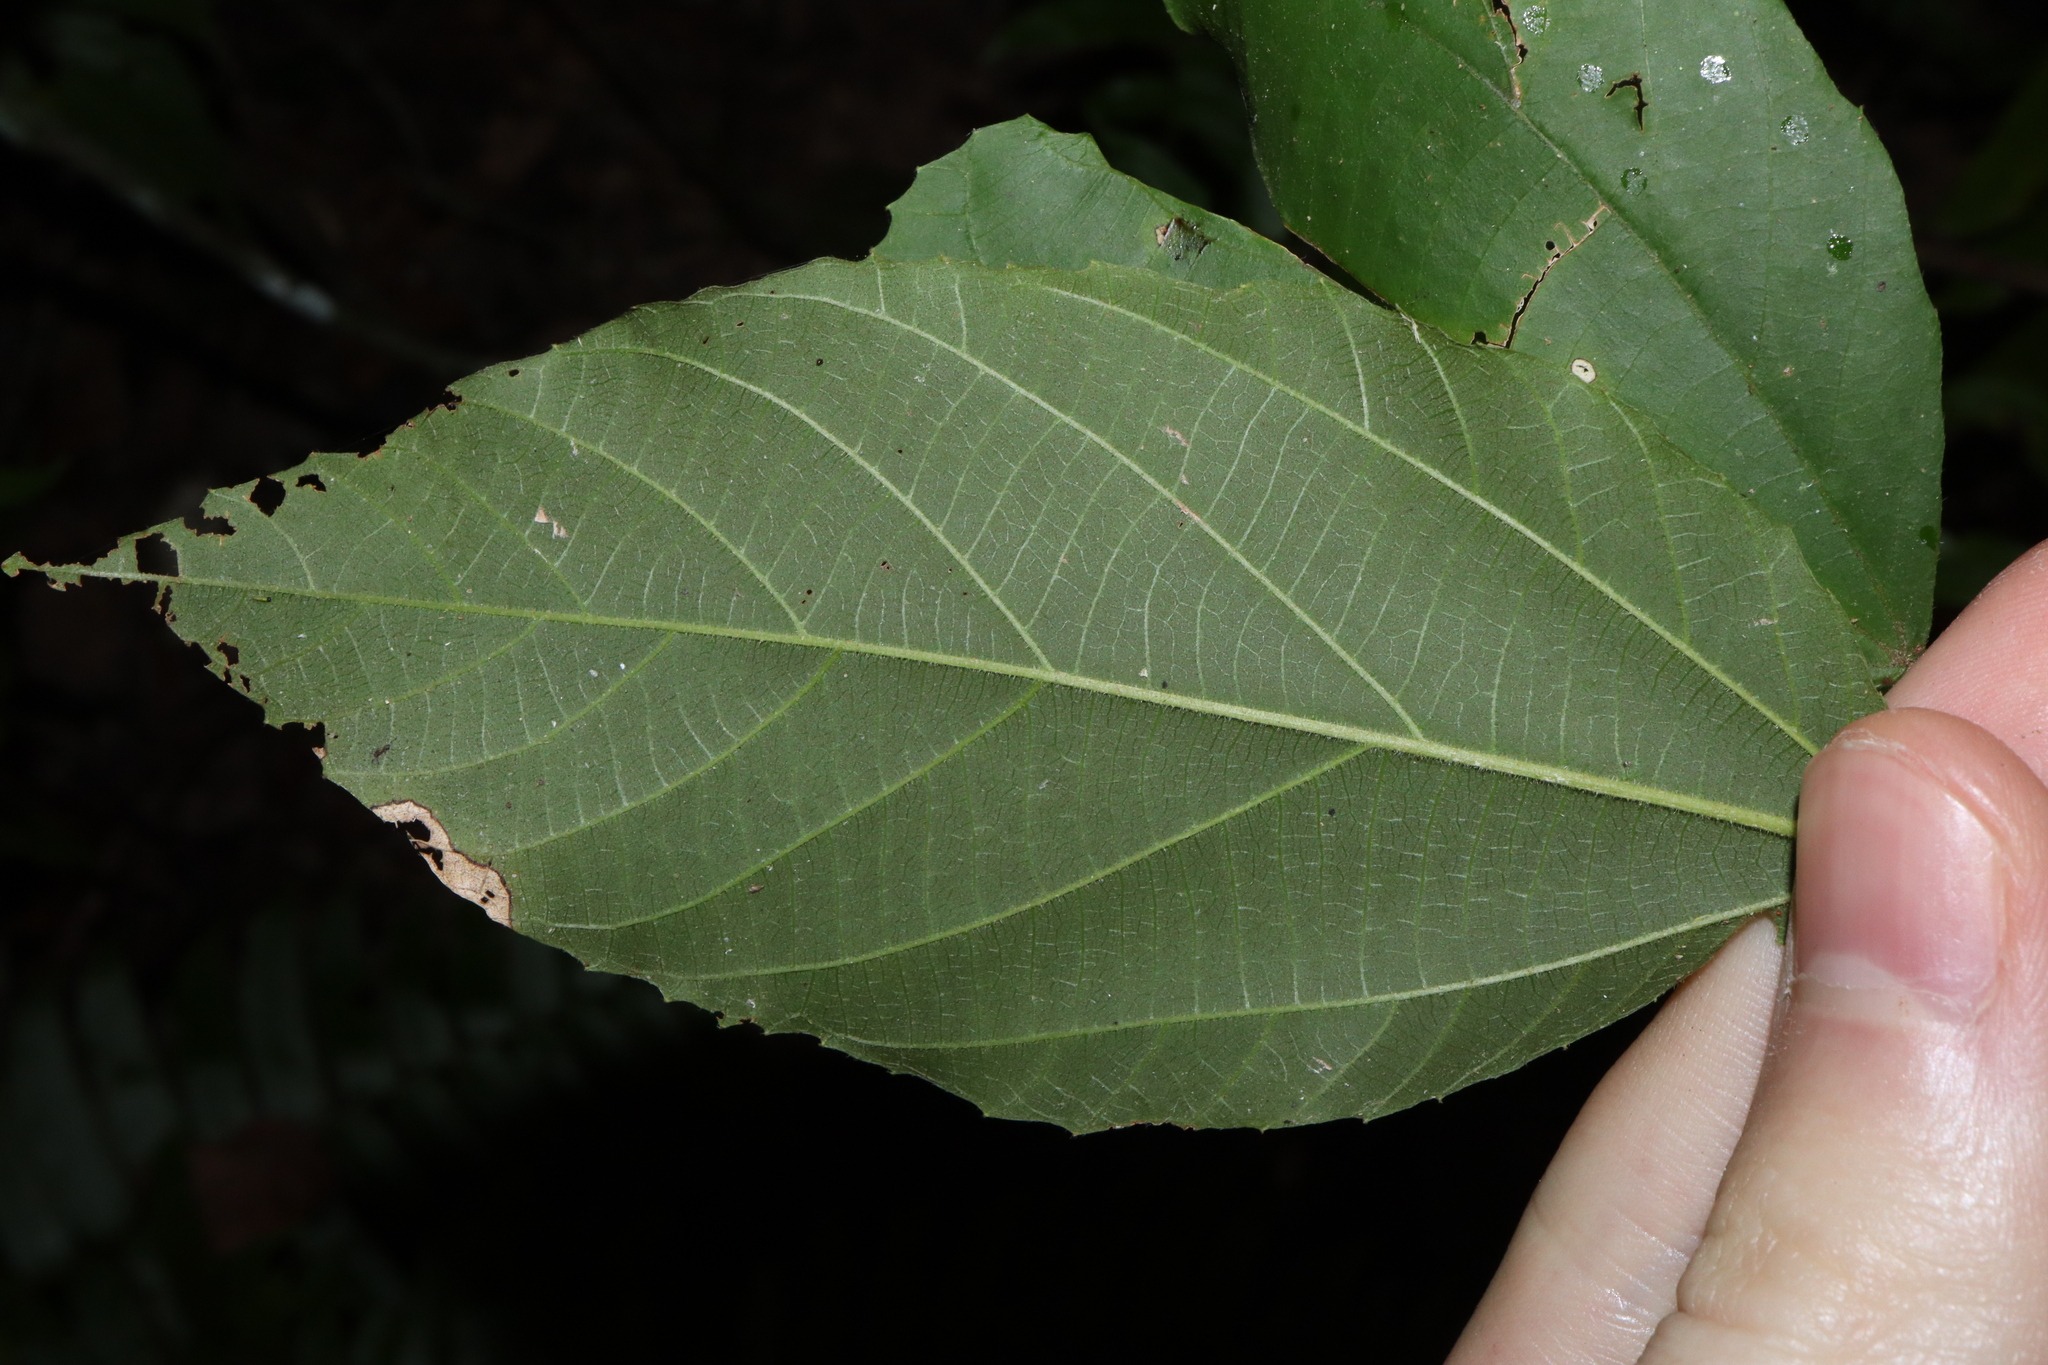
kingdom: Plantae
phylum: Tracheophyta
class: Magnoliopsida
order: Malpighiales
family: Euphorbiaceae
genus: Mallotus
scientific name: Mallotus philippensis
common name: Kamala tree
